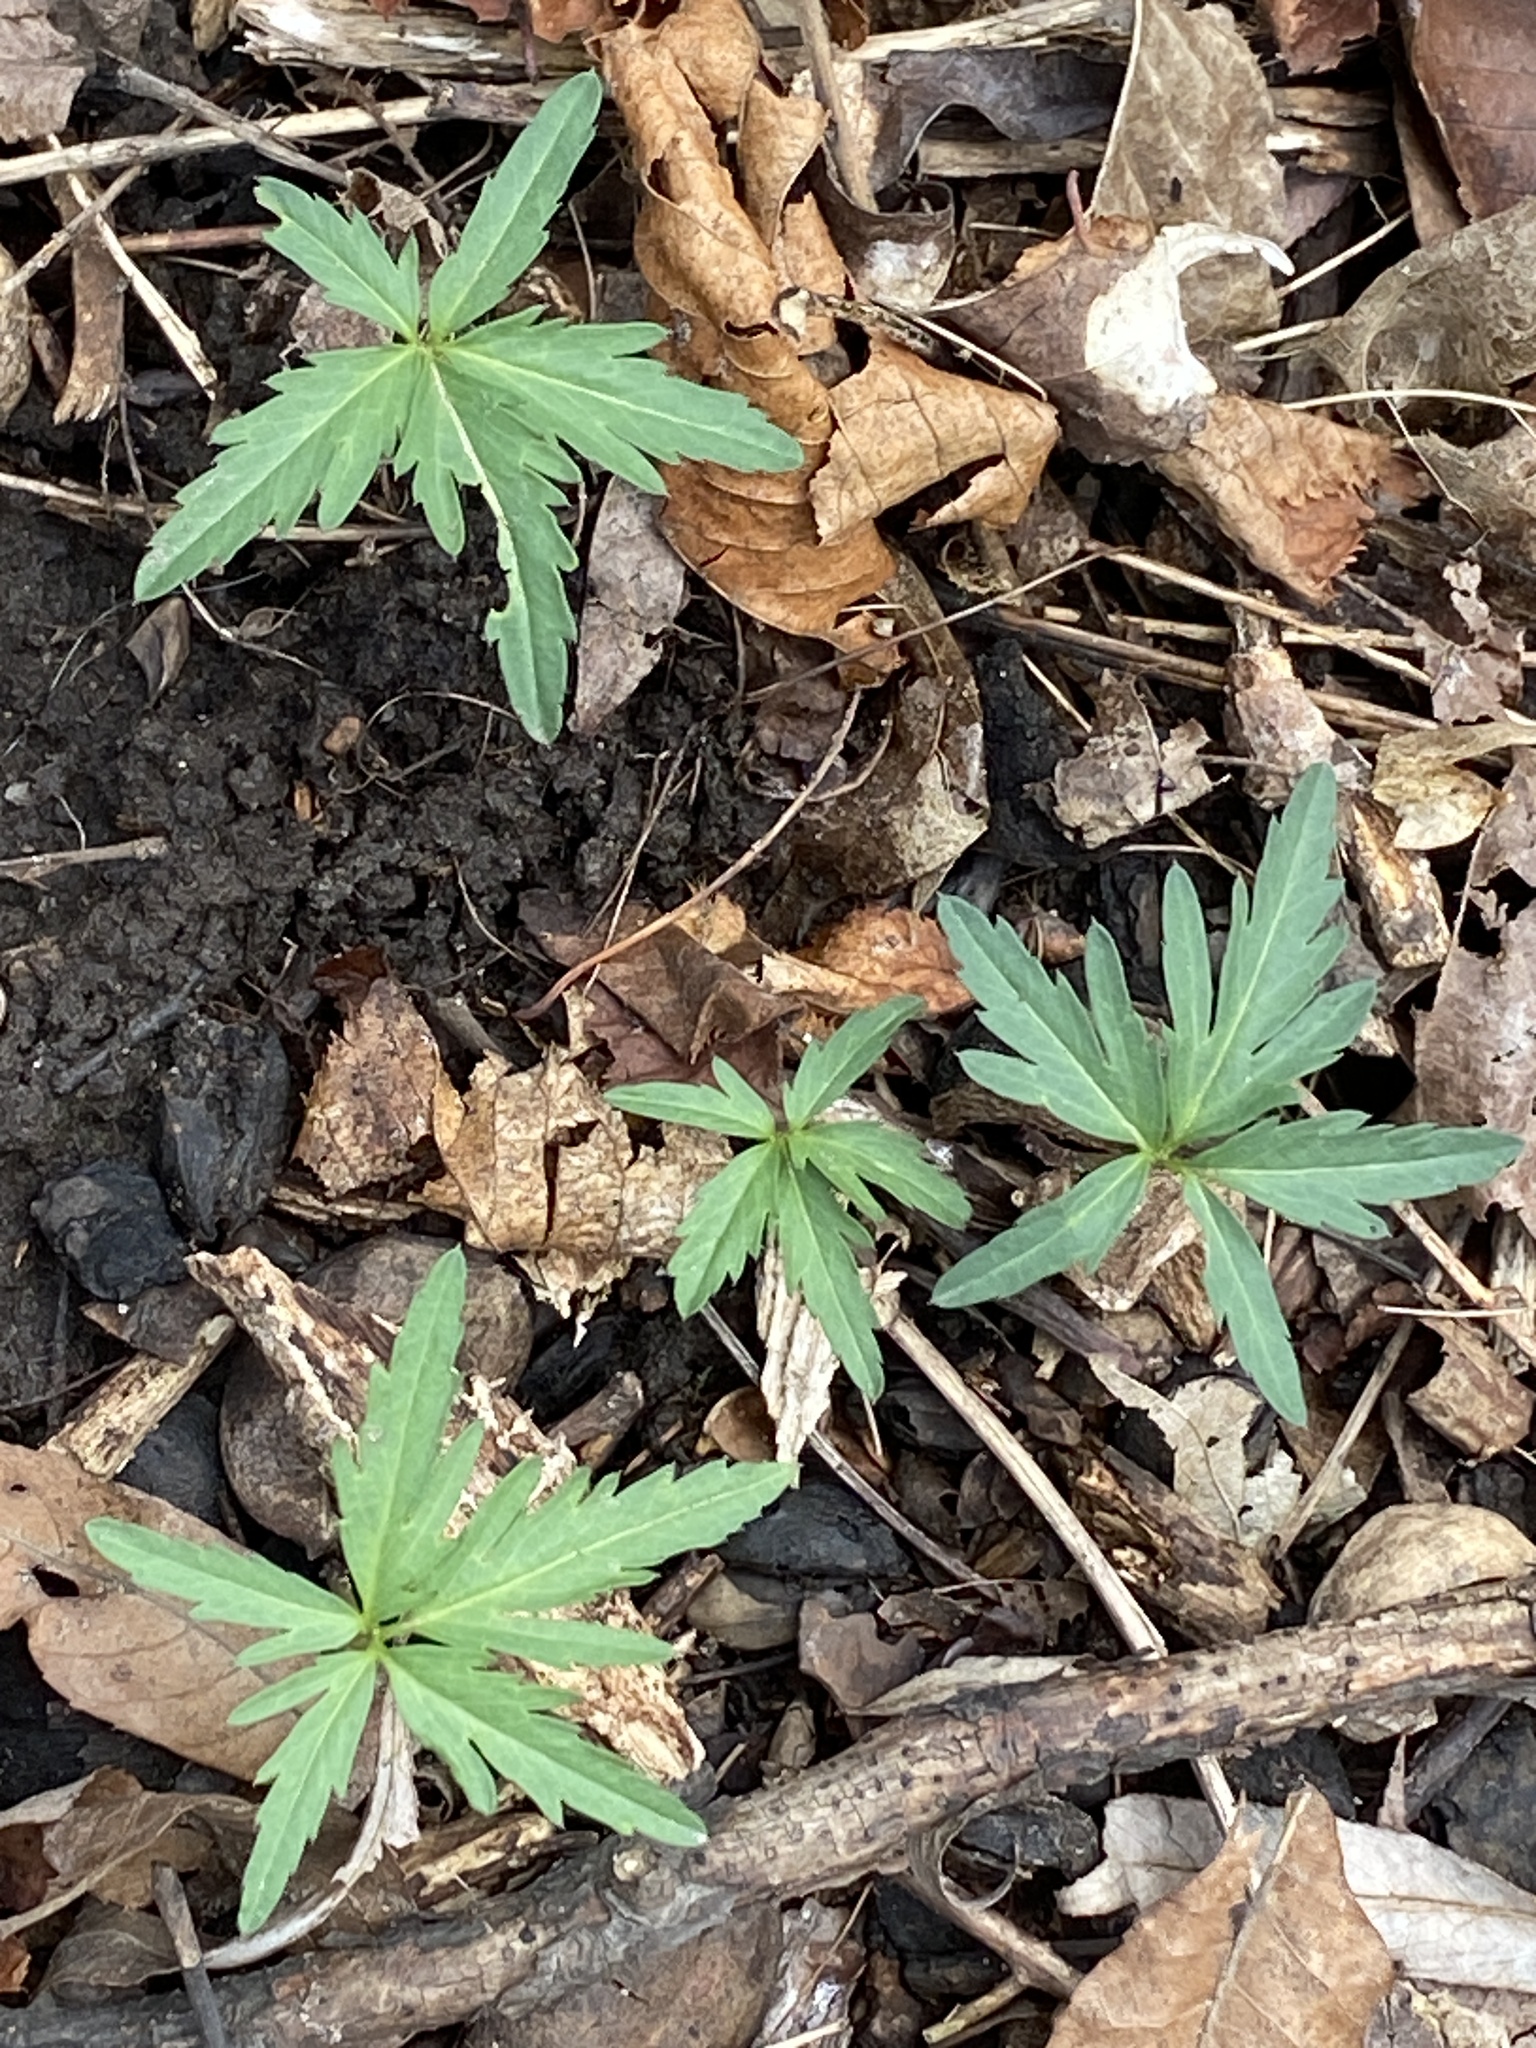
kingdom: Plantae
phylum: Tracheophyta
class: Magnoliopsida
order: Brassicales
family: Brassicaceae
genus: Cardamine
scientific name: Cardamine concatenata
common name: Cut-leaf toothcup
